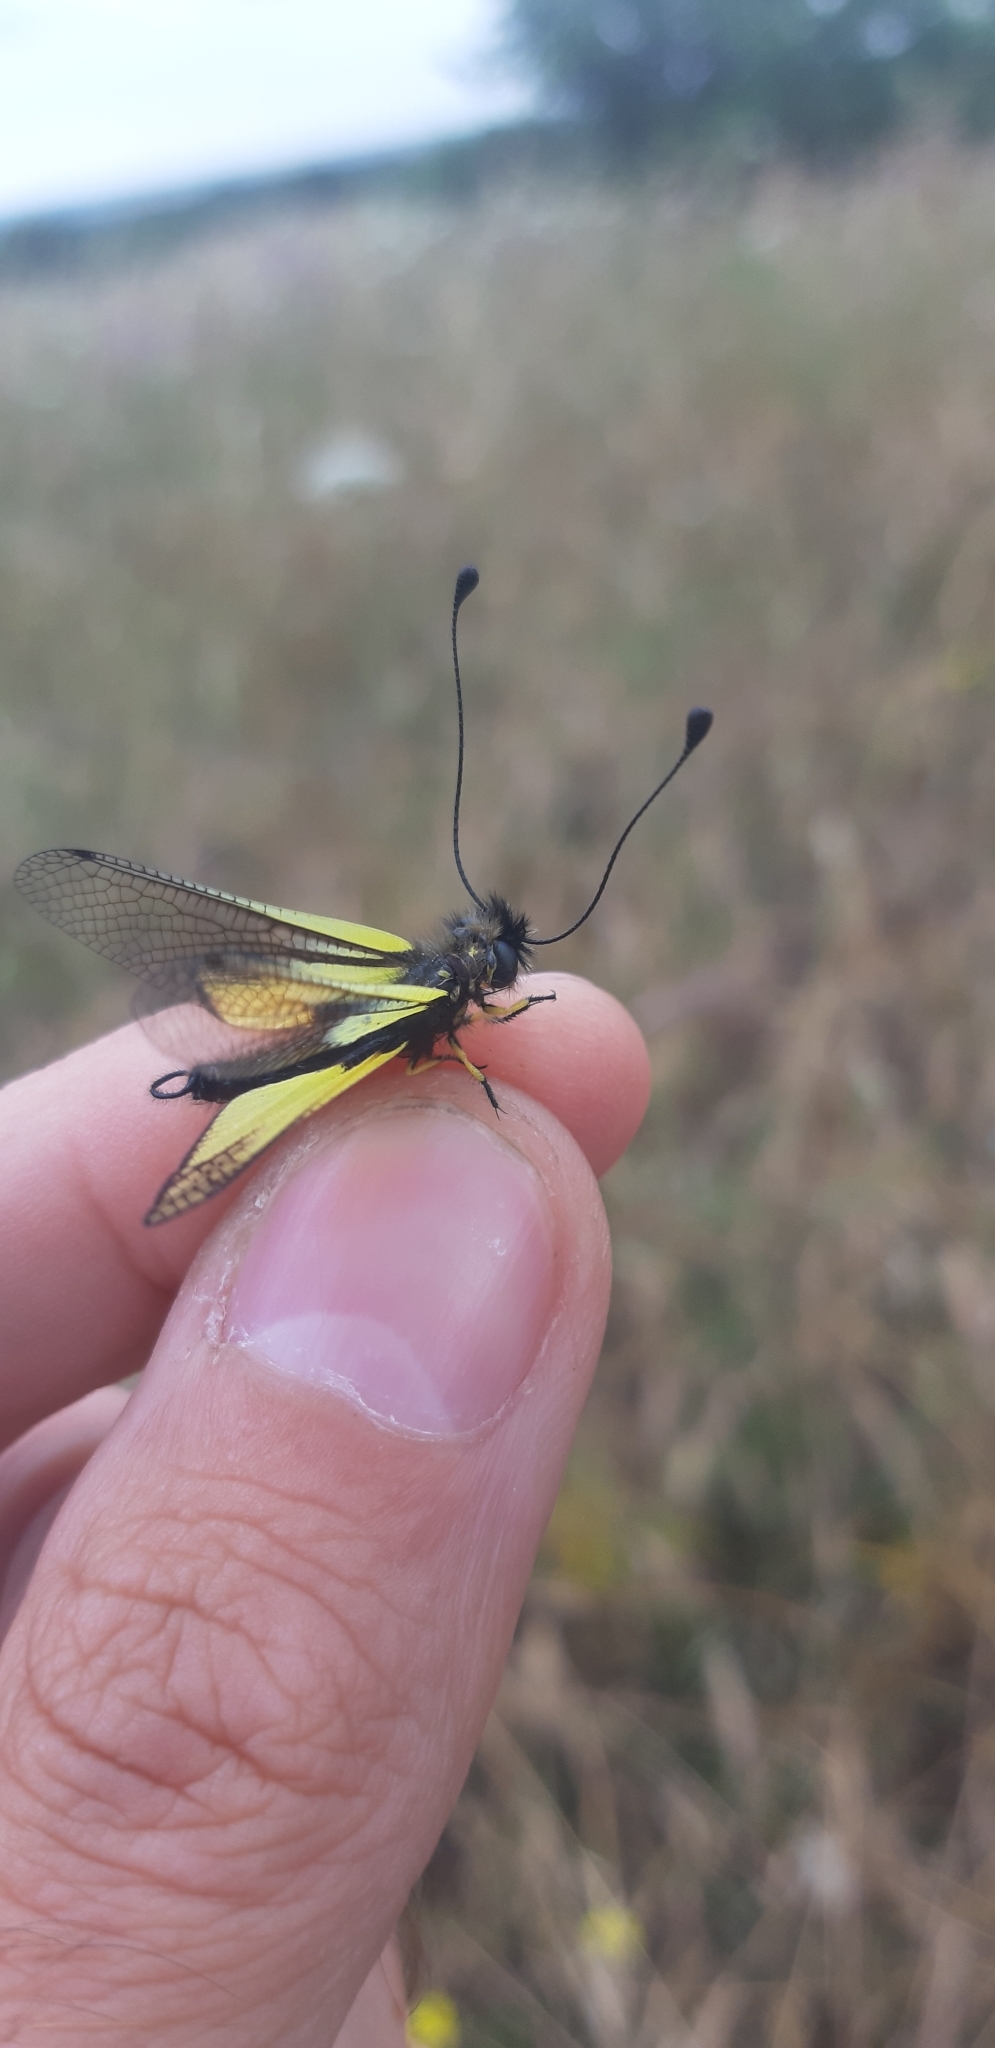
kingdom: Animalia
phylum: Arthropoda
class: Insecta
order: Neuroptera
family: Ascalaphidae
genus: Libelloides
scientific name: Libelloides latinus
